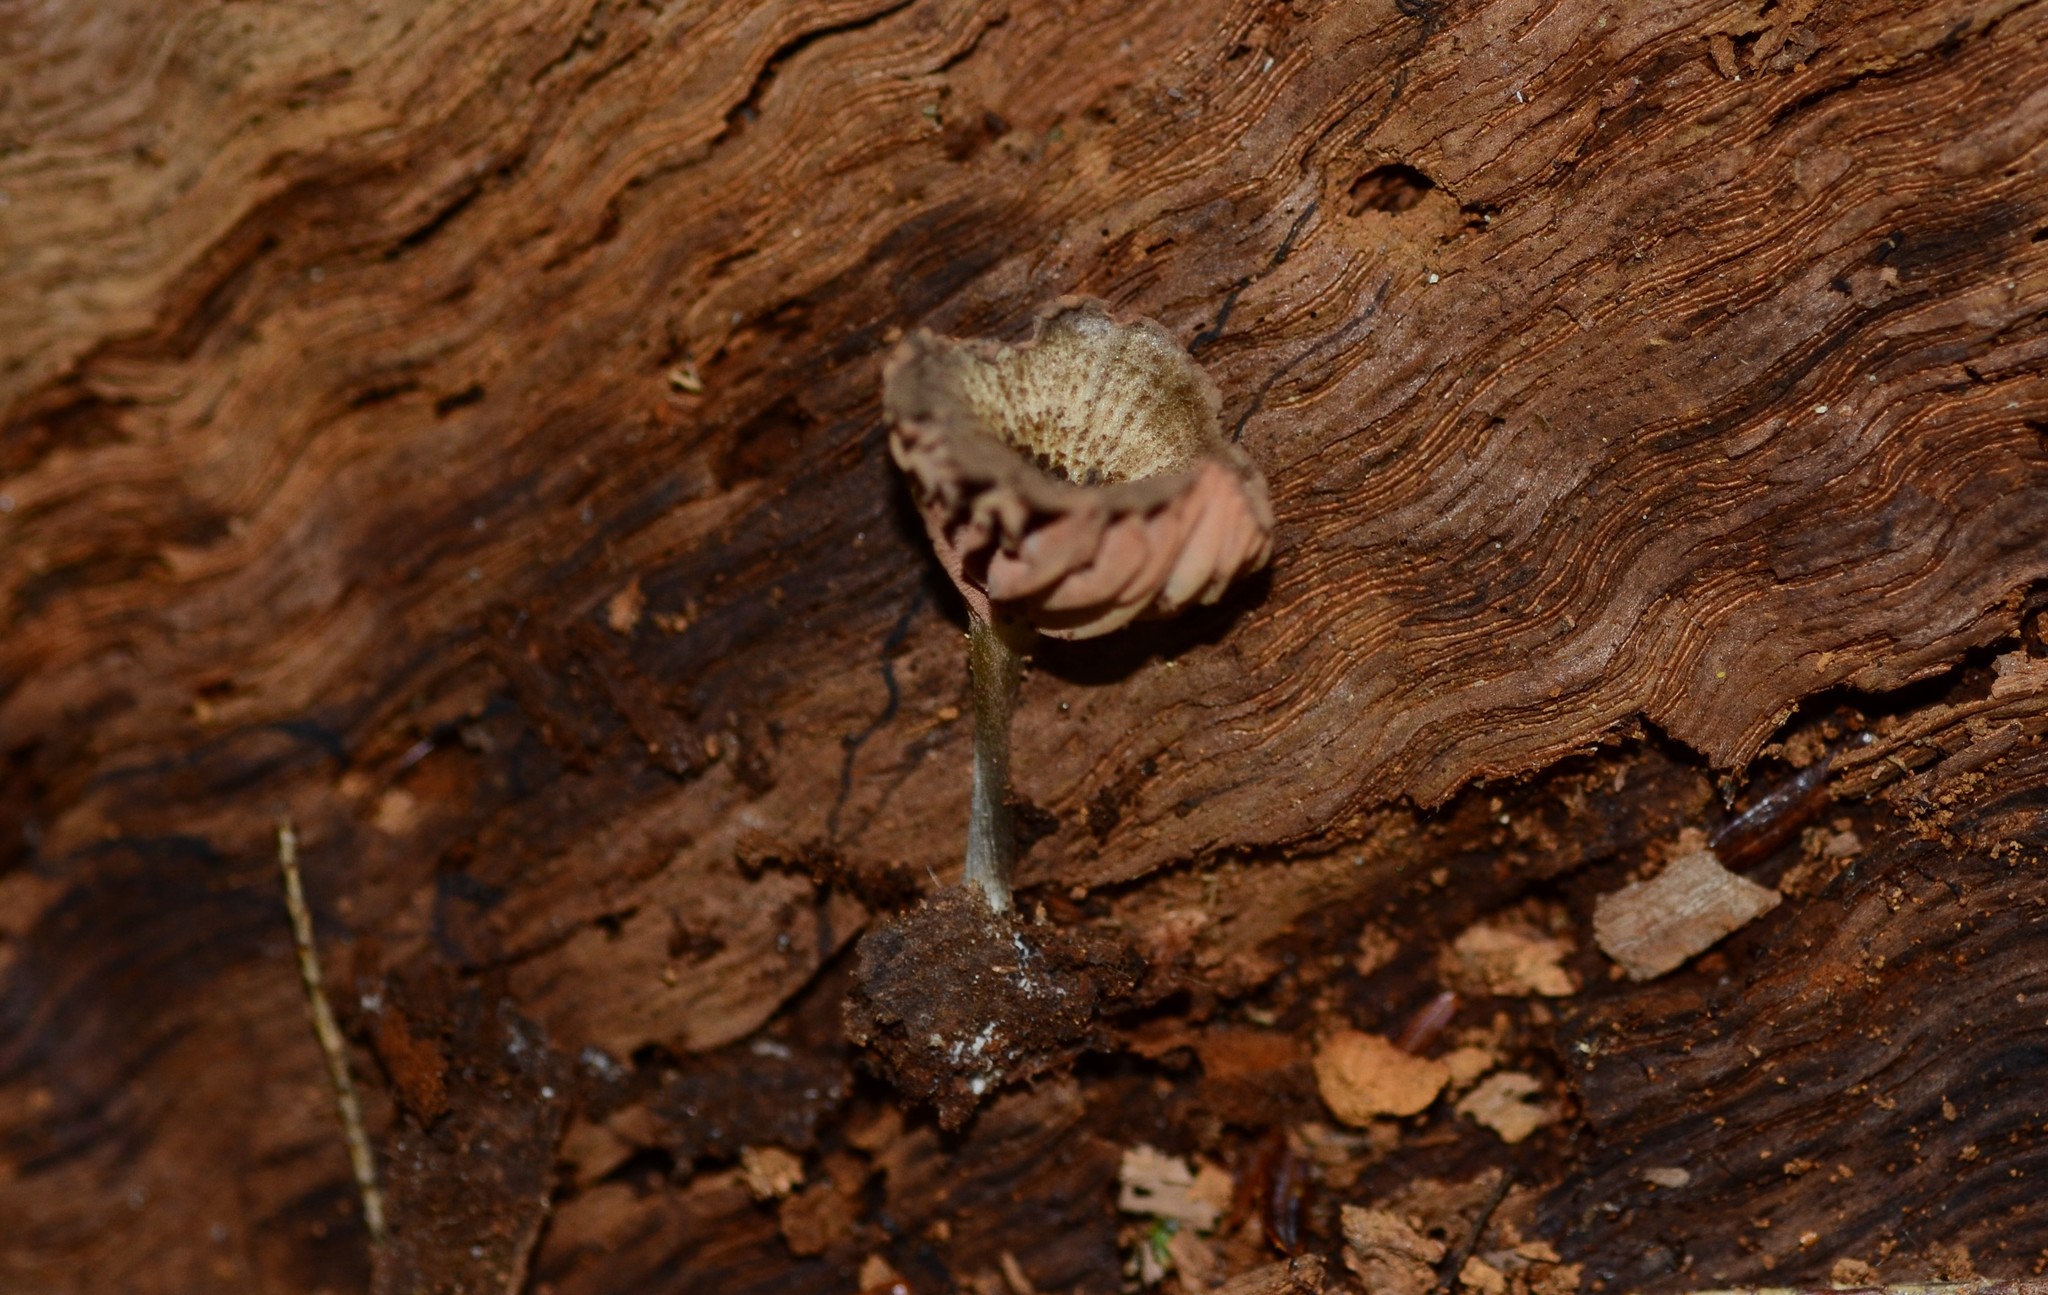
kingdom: Fungi
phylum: Basidiomycota
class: Agaricomycetes
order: Agaricales
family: Entolomataceae
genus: Entoloma
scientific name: Entoloma cuboideum
